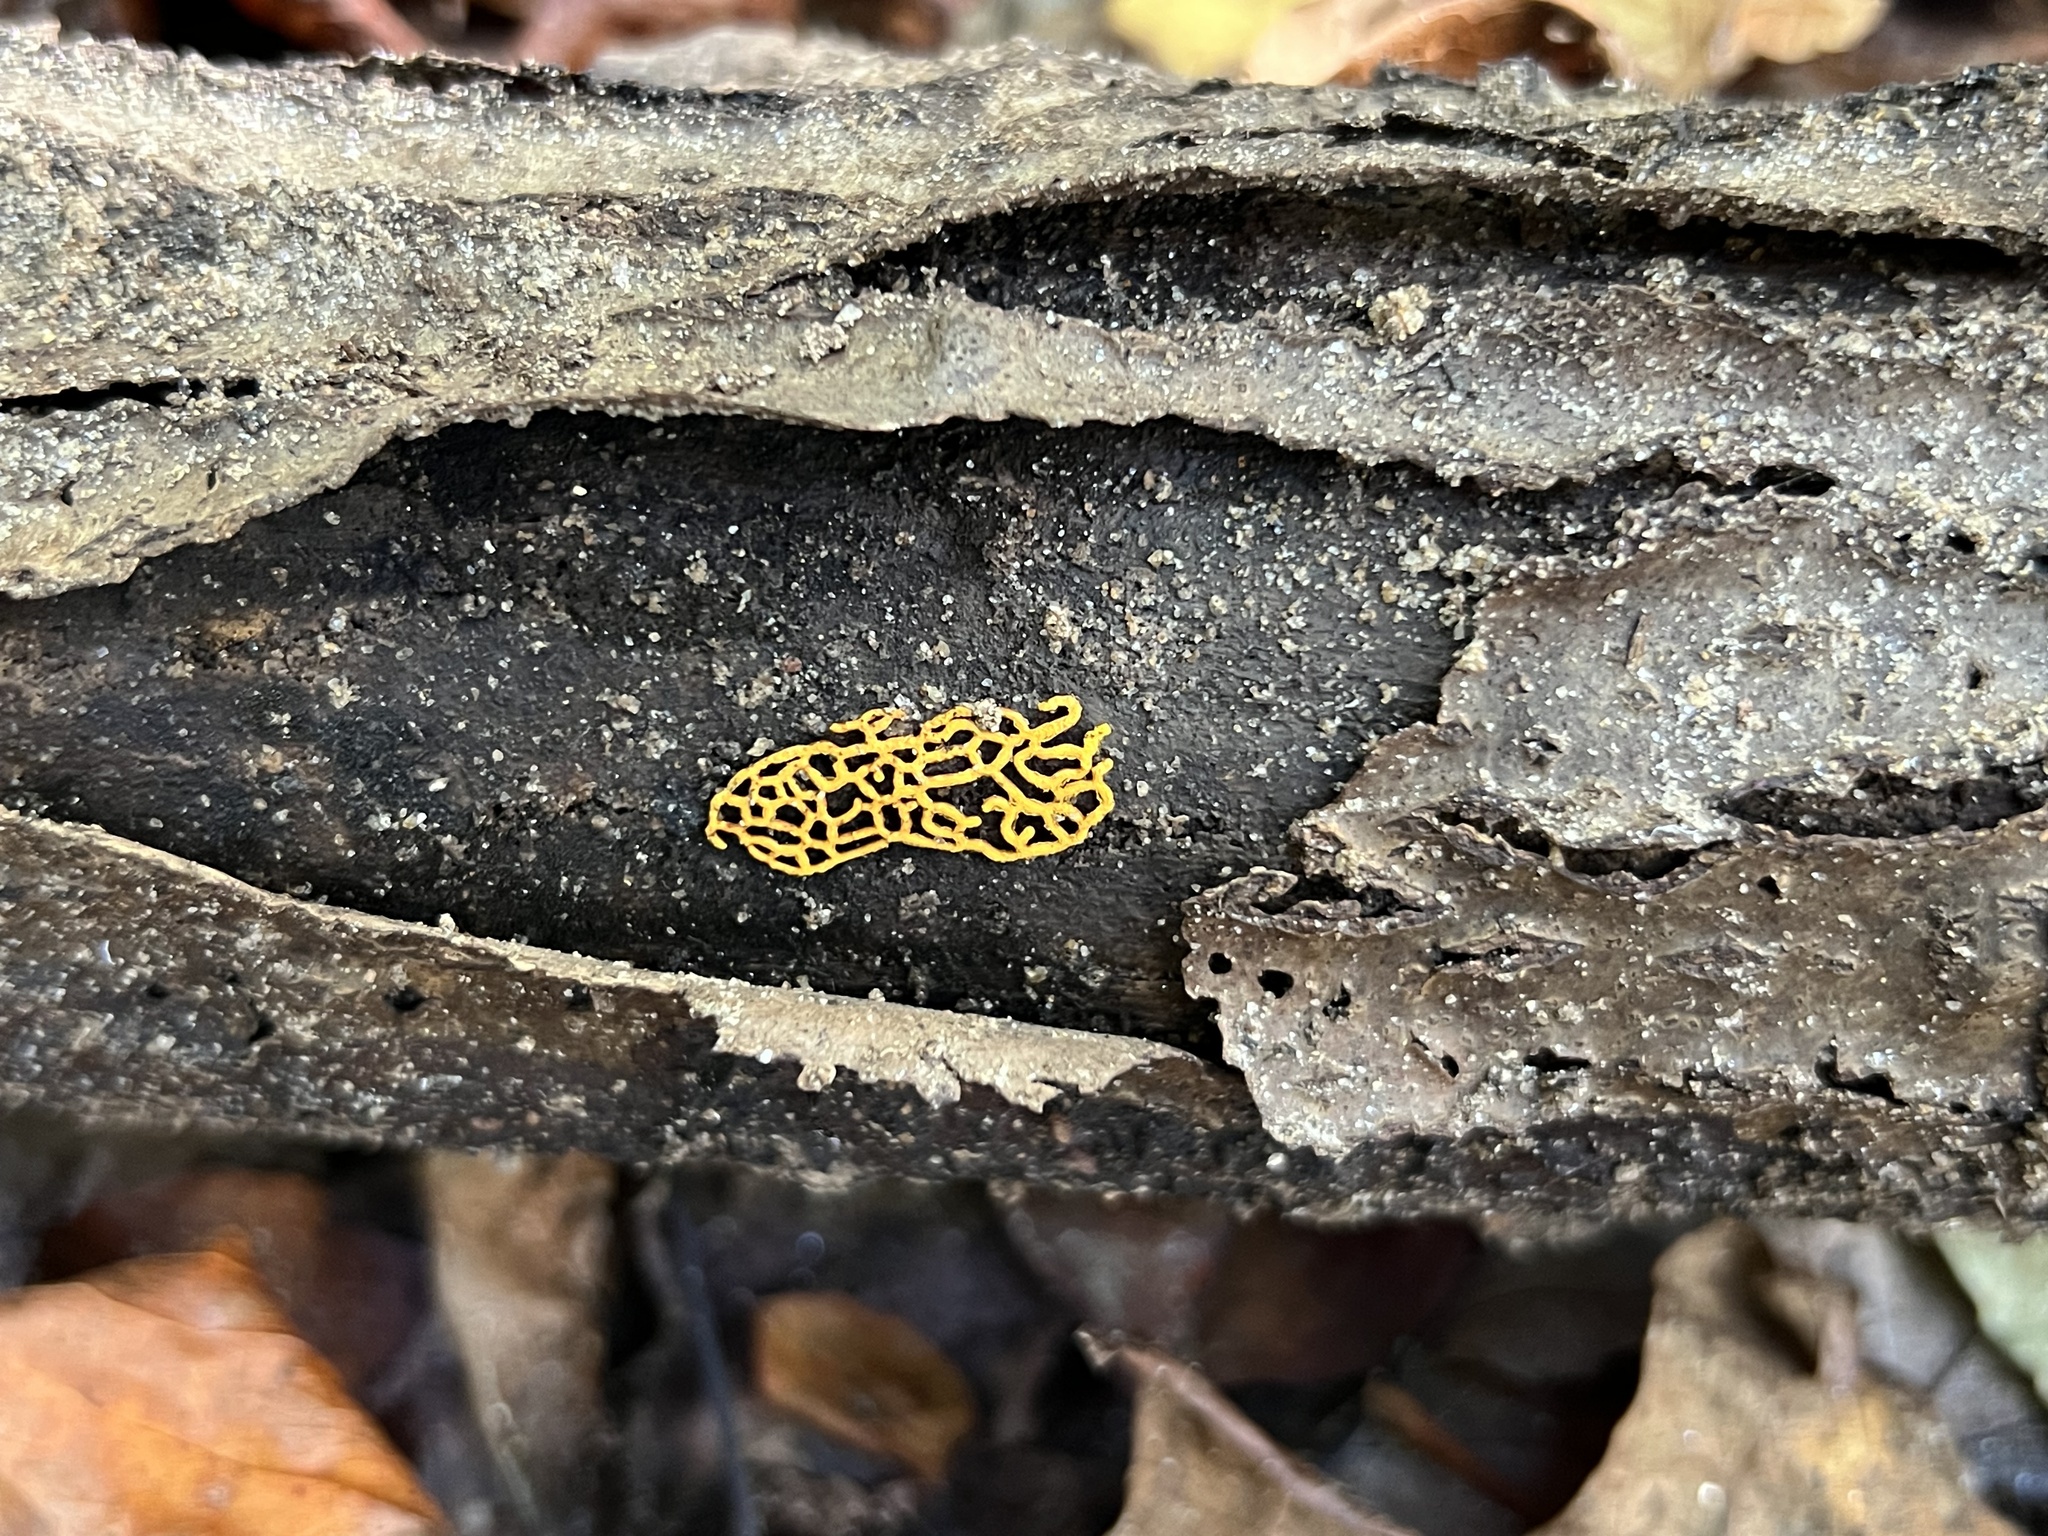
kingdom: Protozoa
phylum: Mycetozoa
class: Myxomycetes
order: Trichiales
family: Arcyriaceae
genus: Hemitrichia
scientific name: Hemitrichia serpula
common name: Pretzel slime mold
